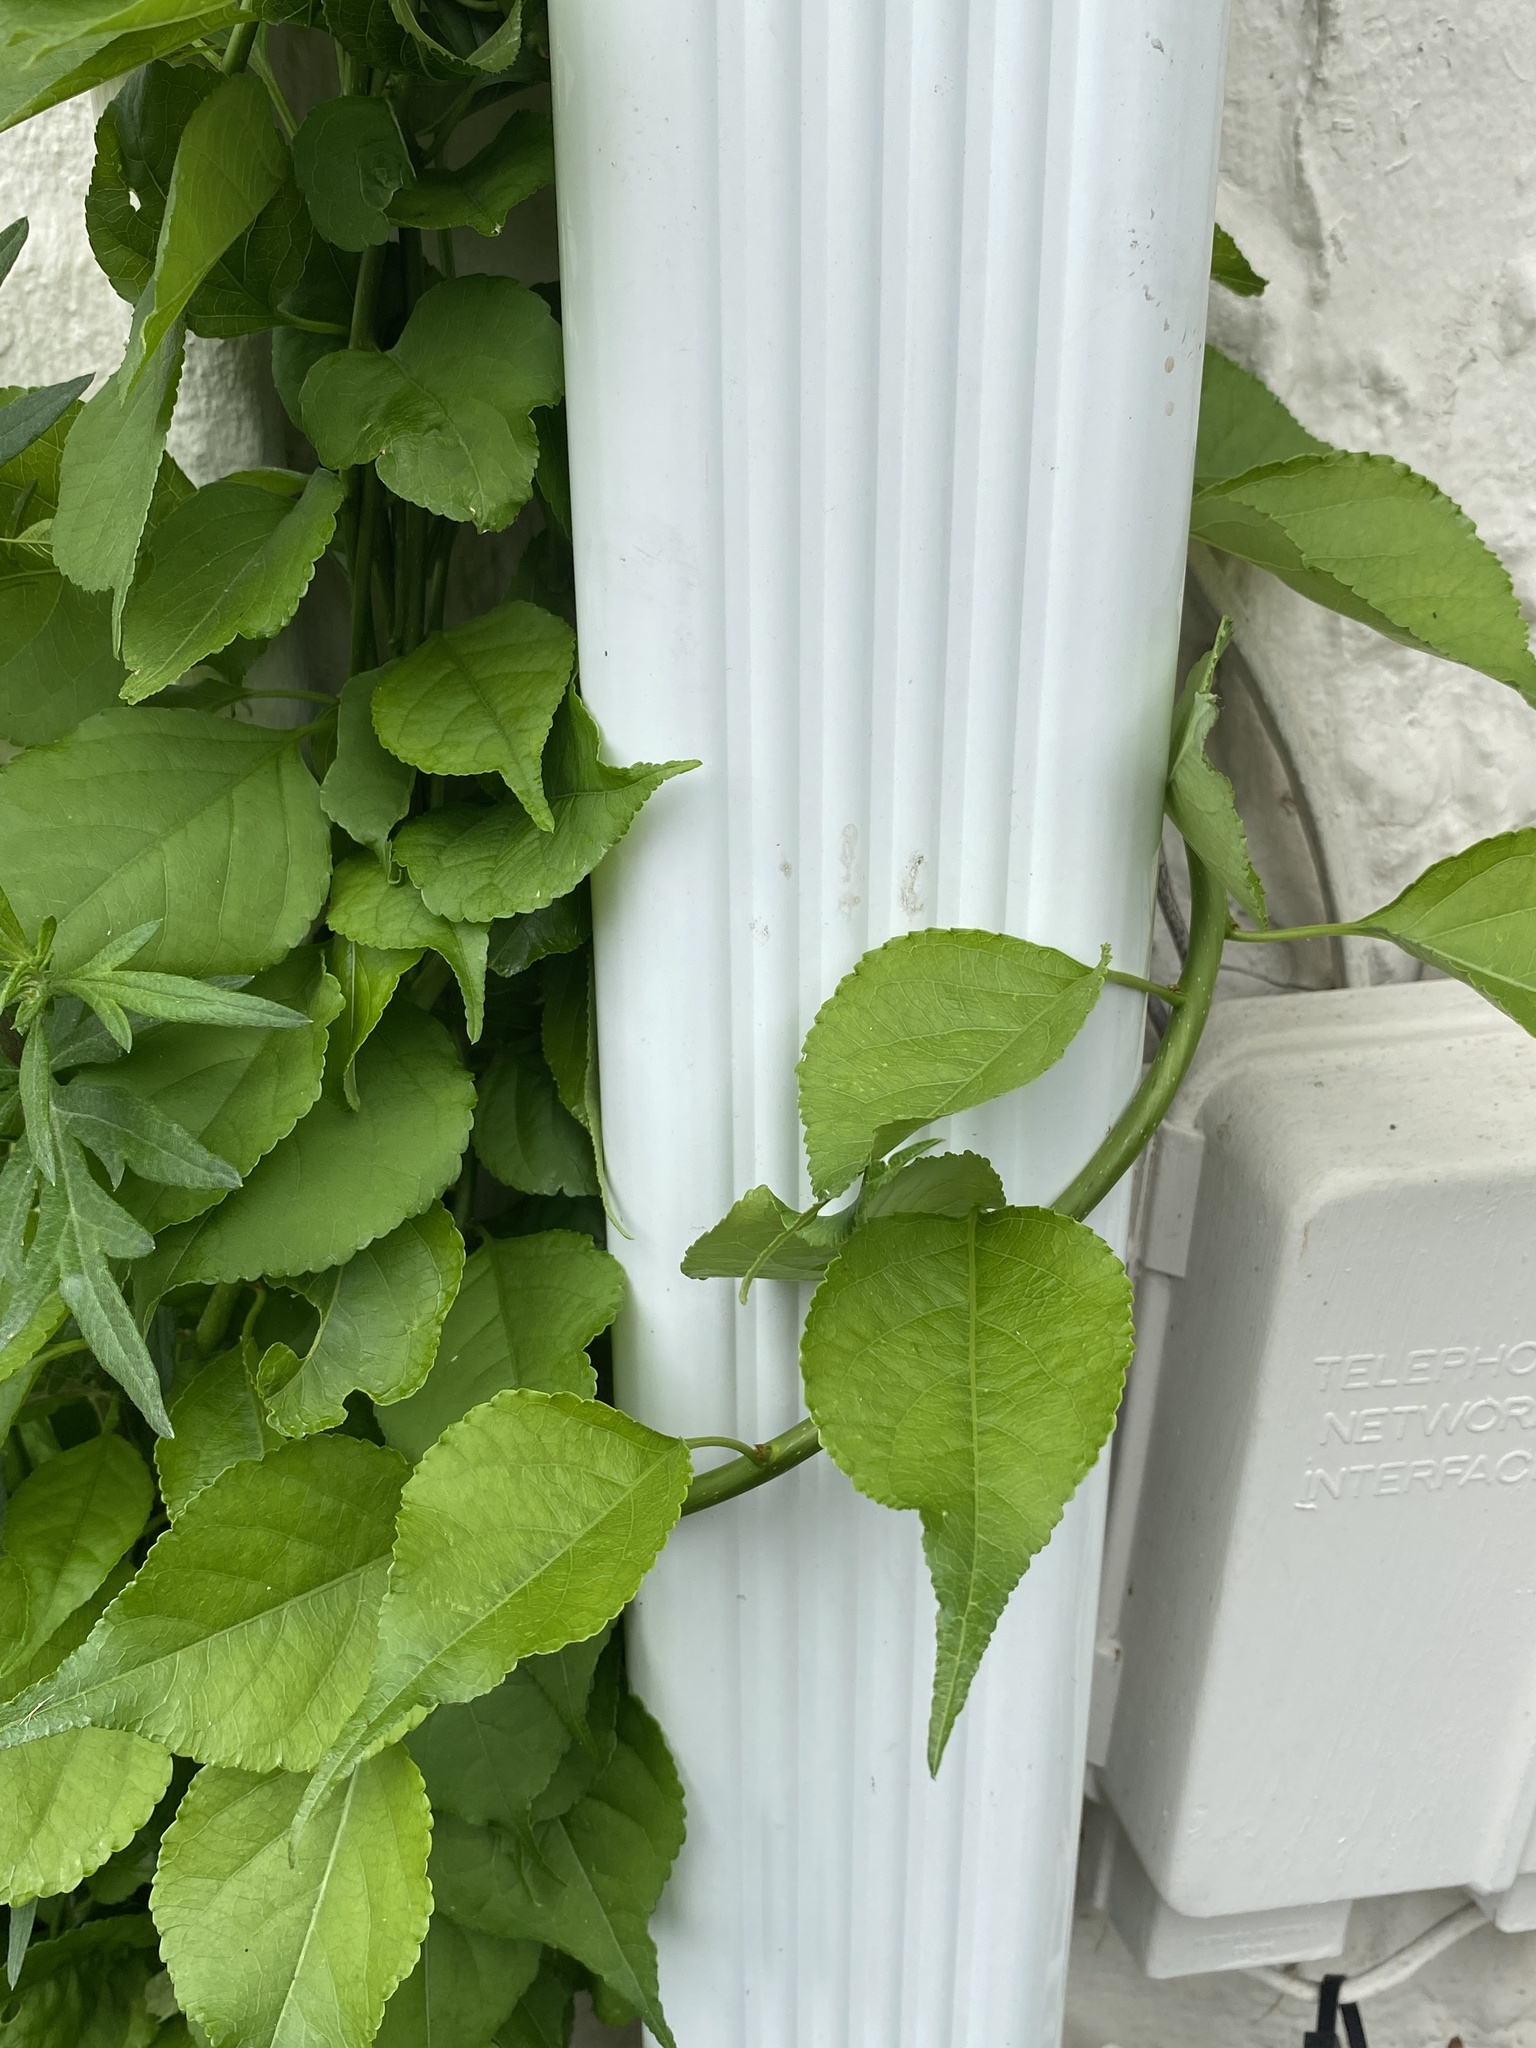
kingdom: Plantae
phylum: Tracheophyta
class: Magnoliopsida
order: Celastrales
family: Celastraceae
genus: Celastrus
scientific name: Celastrus orbiculatus
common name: Oriental bittersweet
